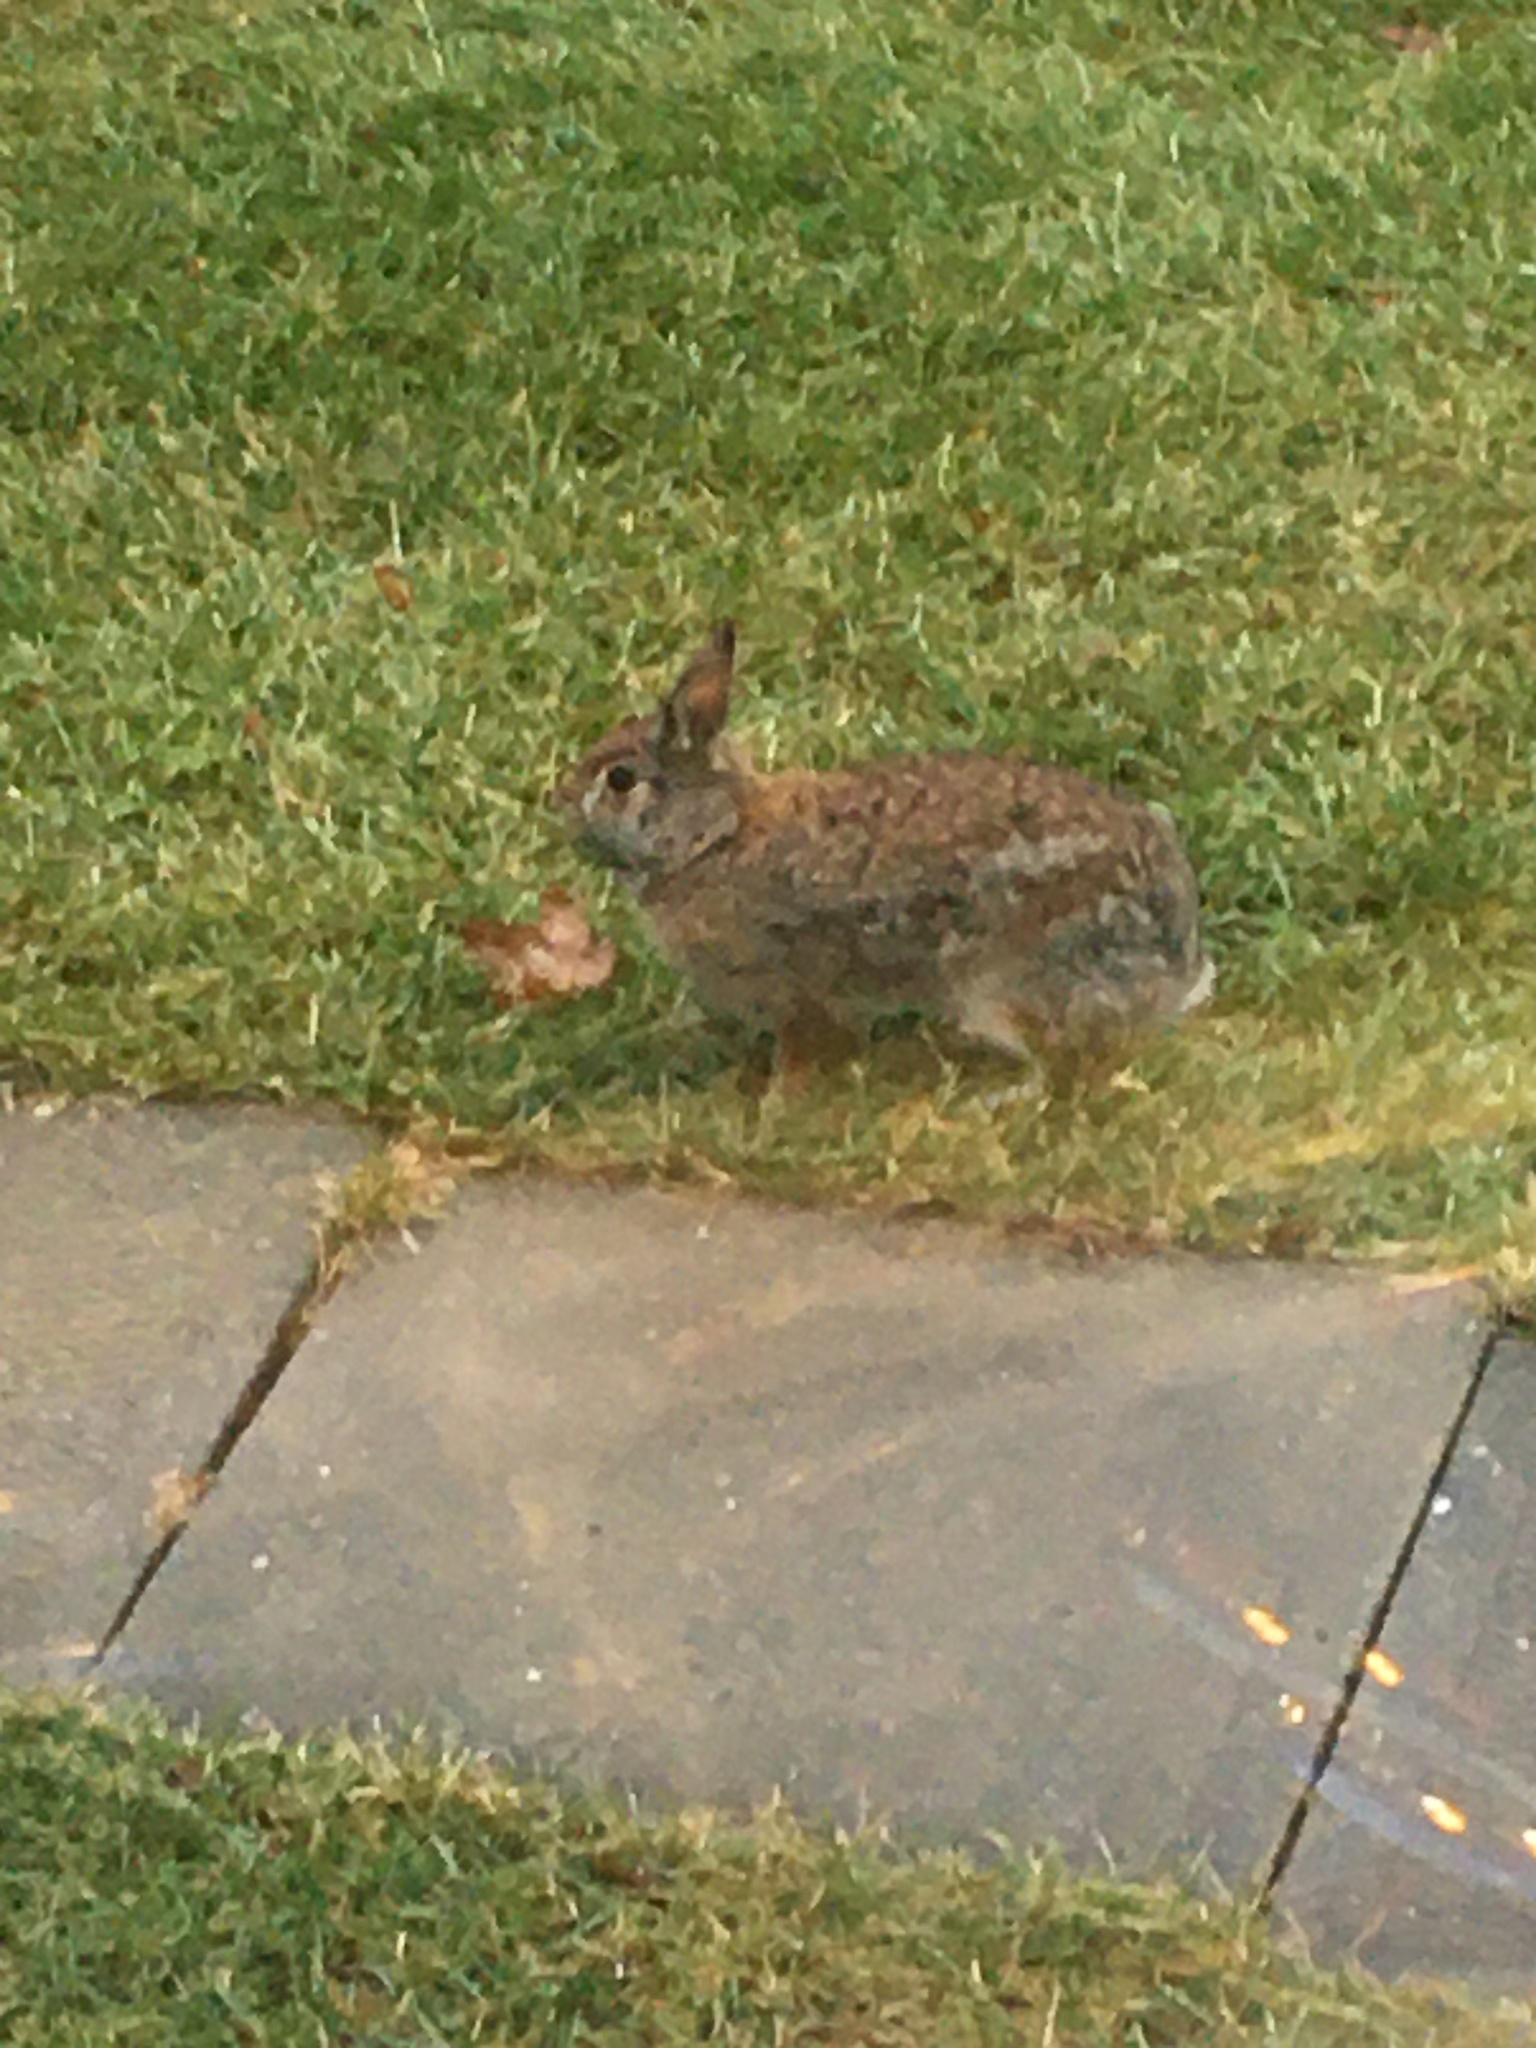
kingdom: Animalia
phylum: Chordata
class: Mammalia
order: Lagomorpha
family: Leporidae
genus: Sylvilagus
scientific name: Sylvilagus floridanus
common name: Eastern cottontail
